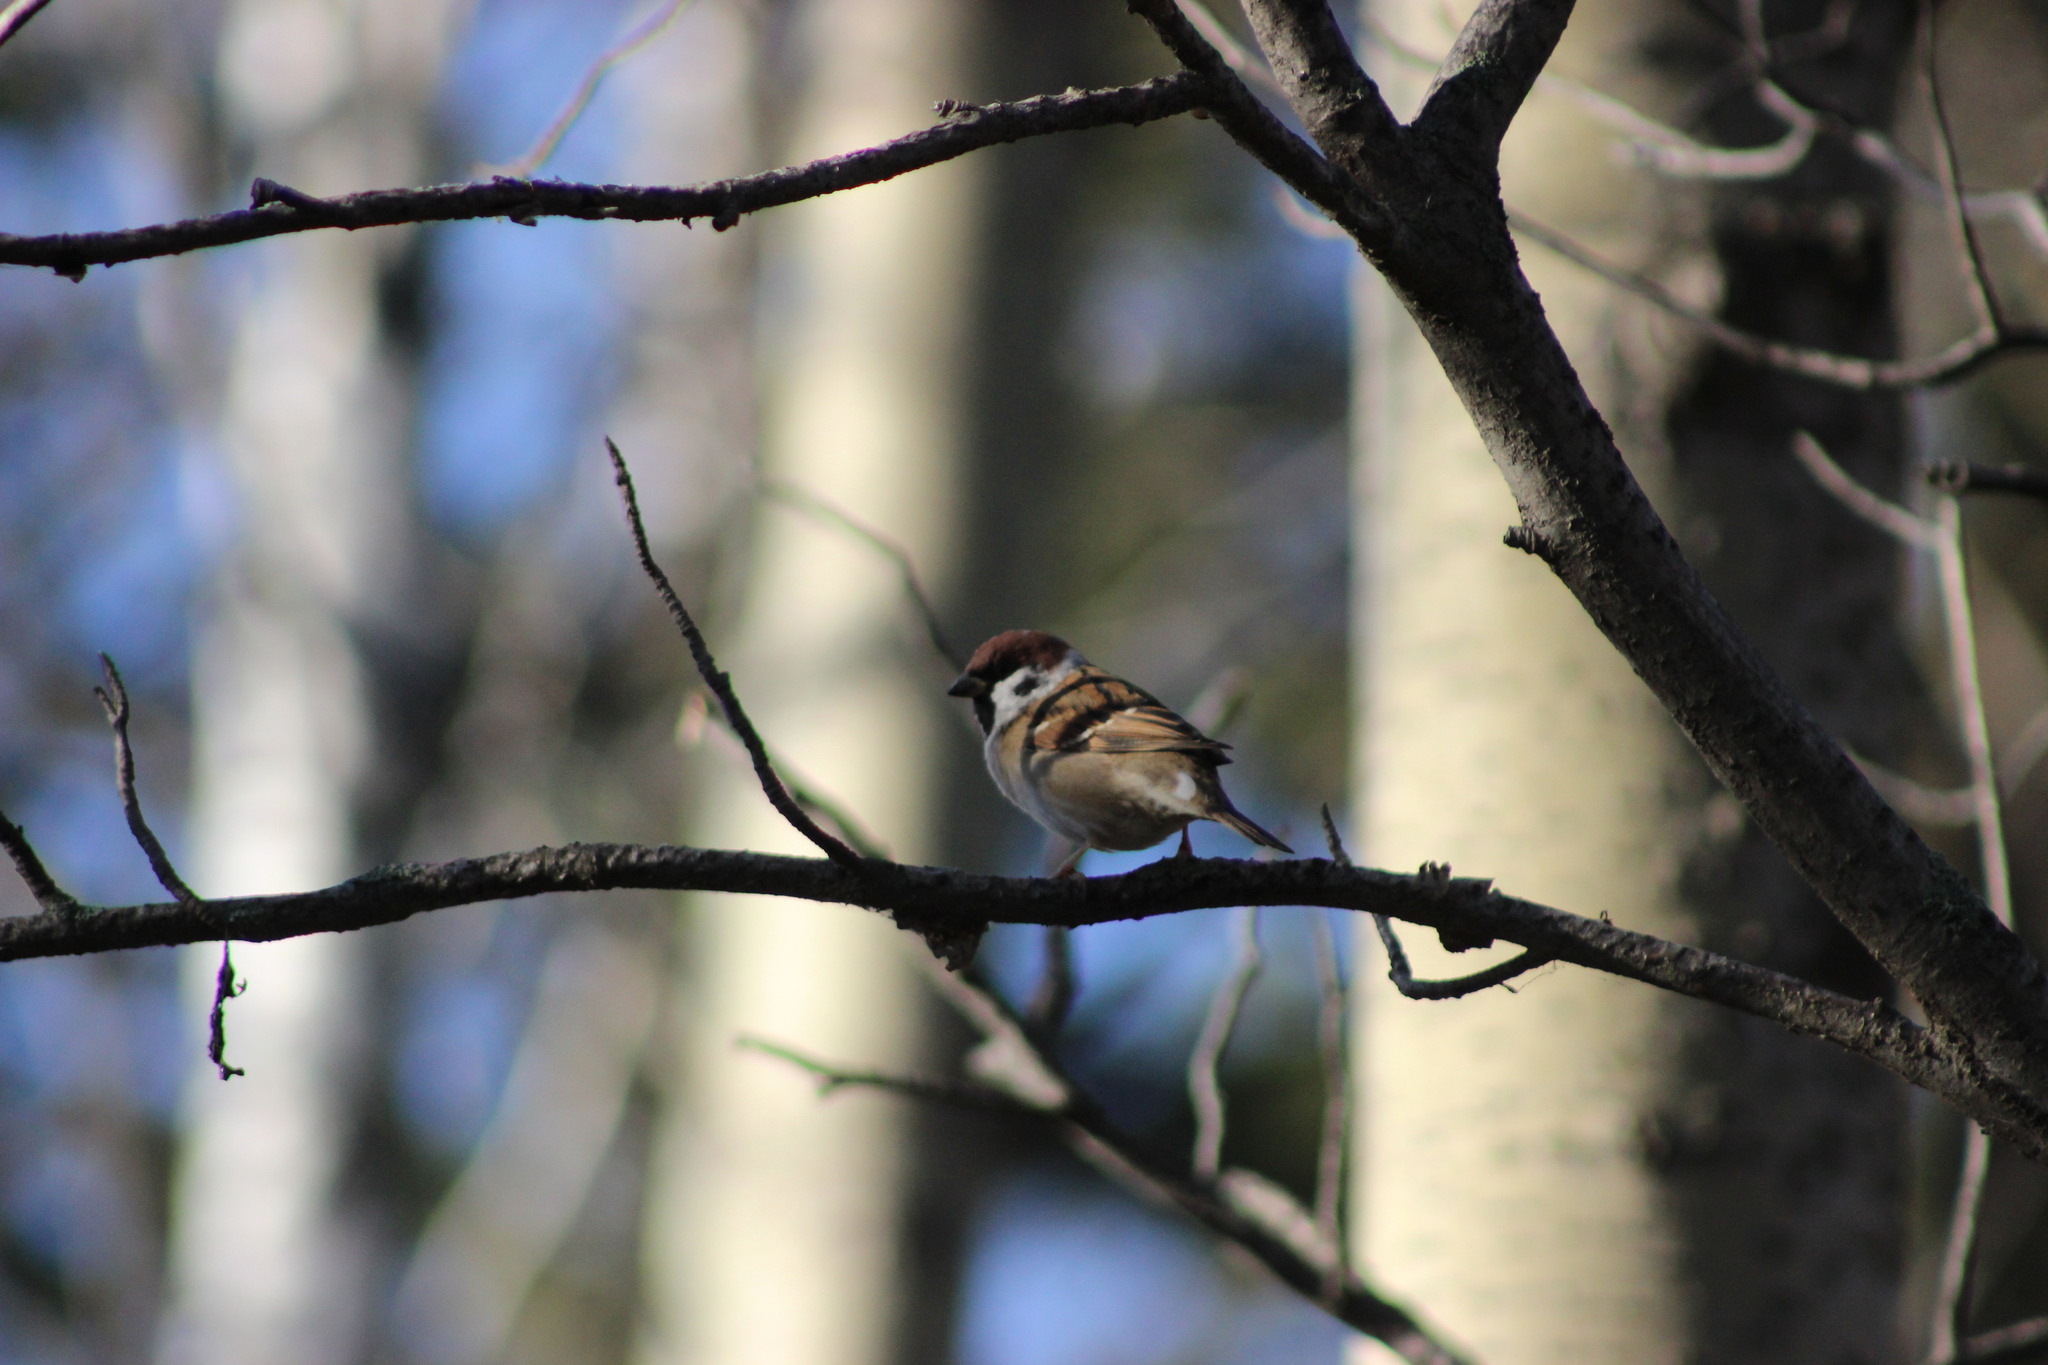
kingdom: Animalia
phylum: Chordata
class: Aves
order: Passeriformes
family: Passeridae
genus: Passer
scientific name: Passer montanus
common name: Eurasian tree sparrow
